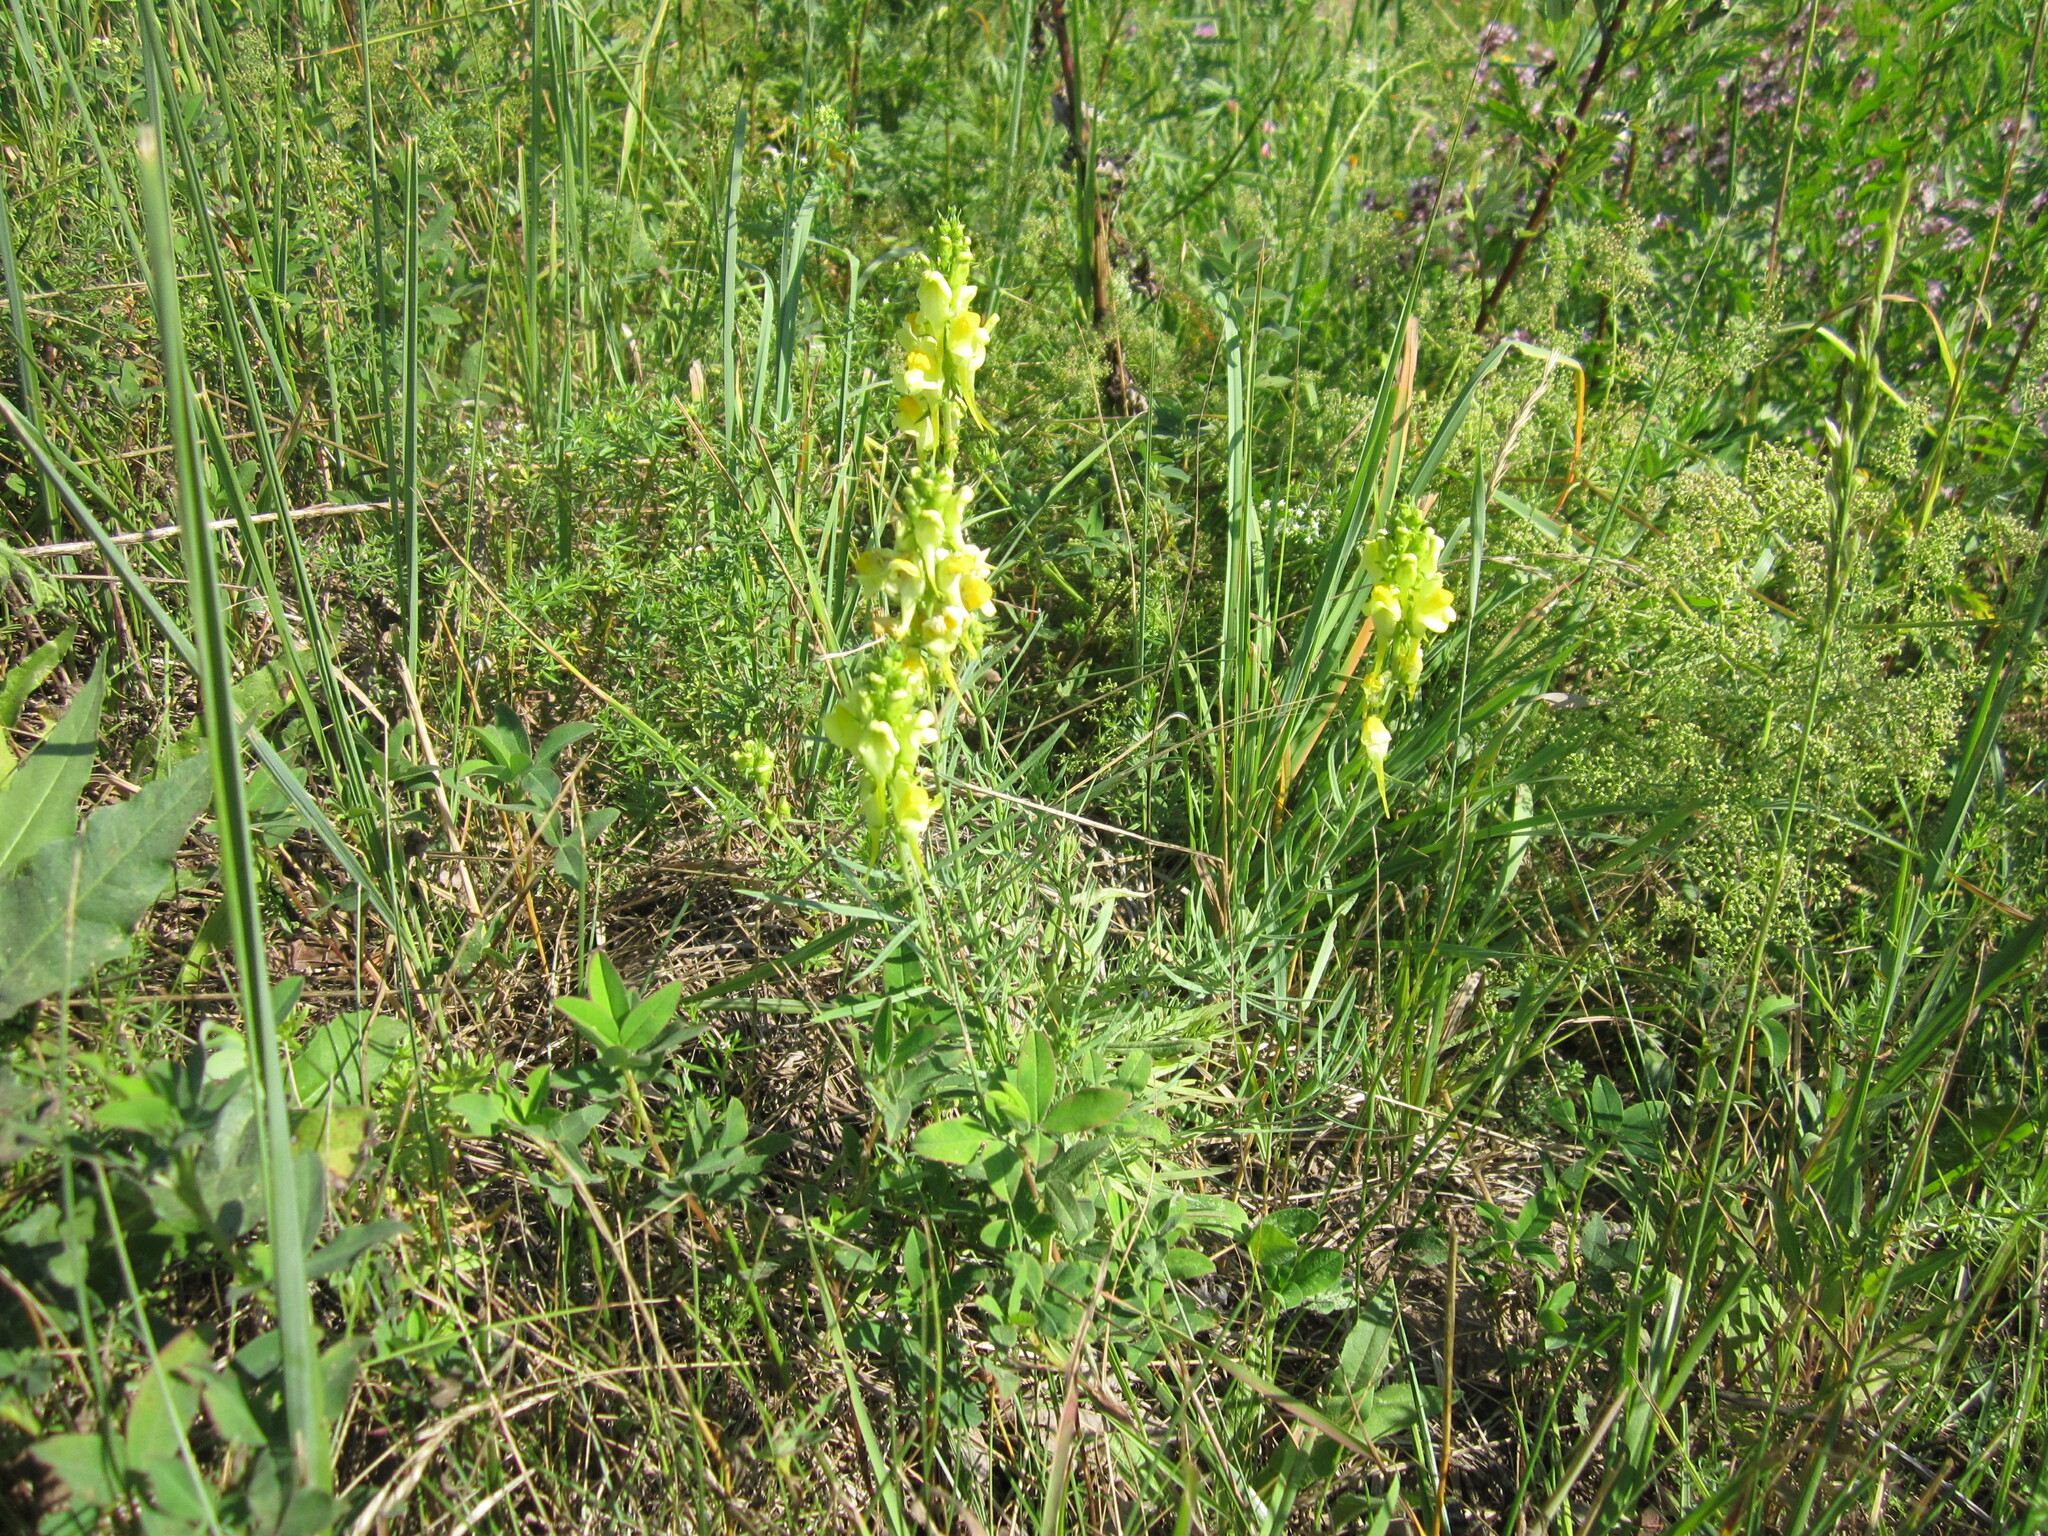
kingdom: Plantae
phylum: Tracheophyta
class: Magnoliopsida
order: Lamiales
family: Plantaginaceae
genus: Linaria
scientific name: Linaria vulgaris
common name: Butter and eggs
